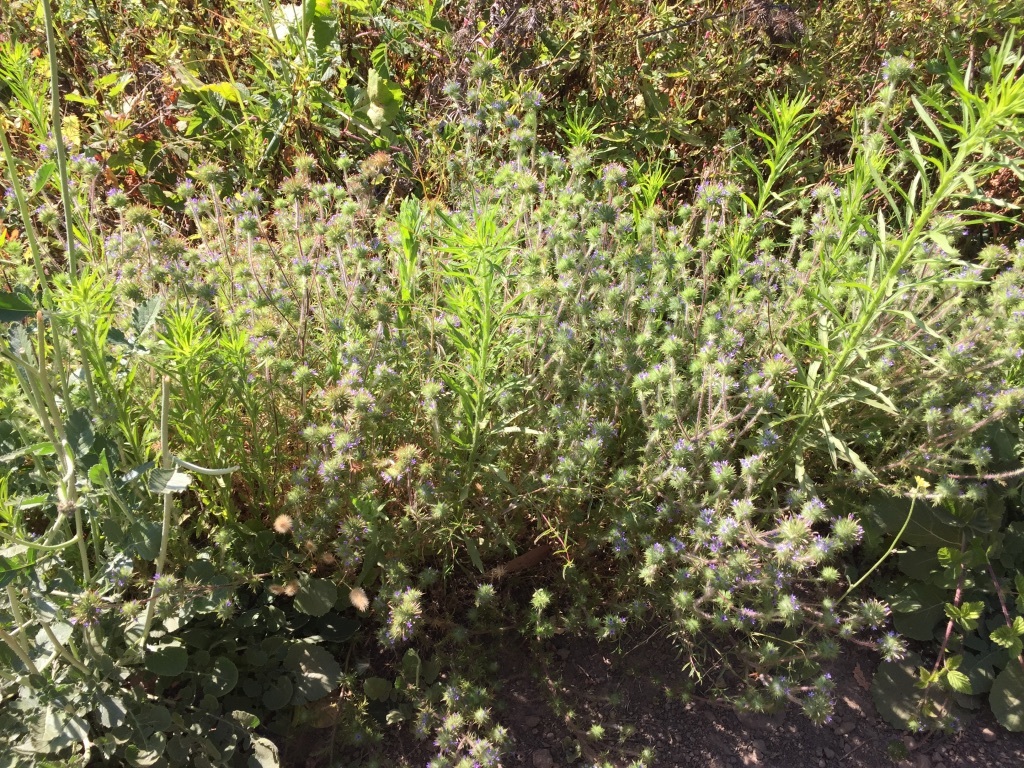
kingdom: Plantae
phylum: Tracheophyta
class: Magnoliopsida
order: Ericales
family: Polemoniaceae
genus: Navarretia
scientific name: Navarretia squarrosa
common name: Skunkweed
